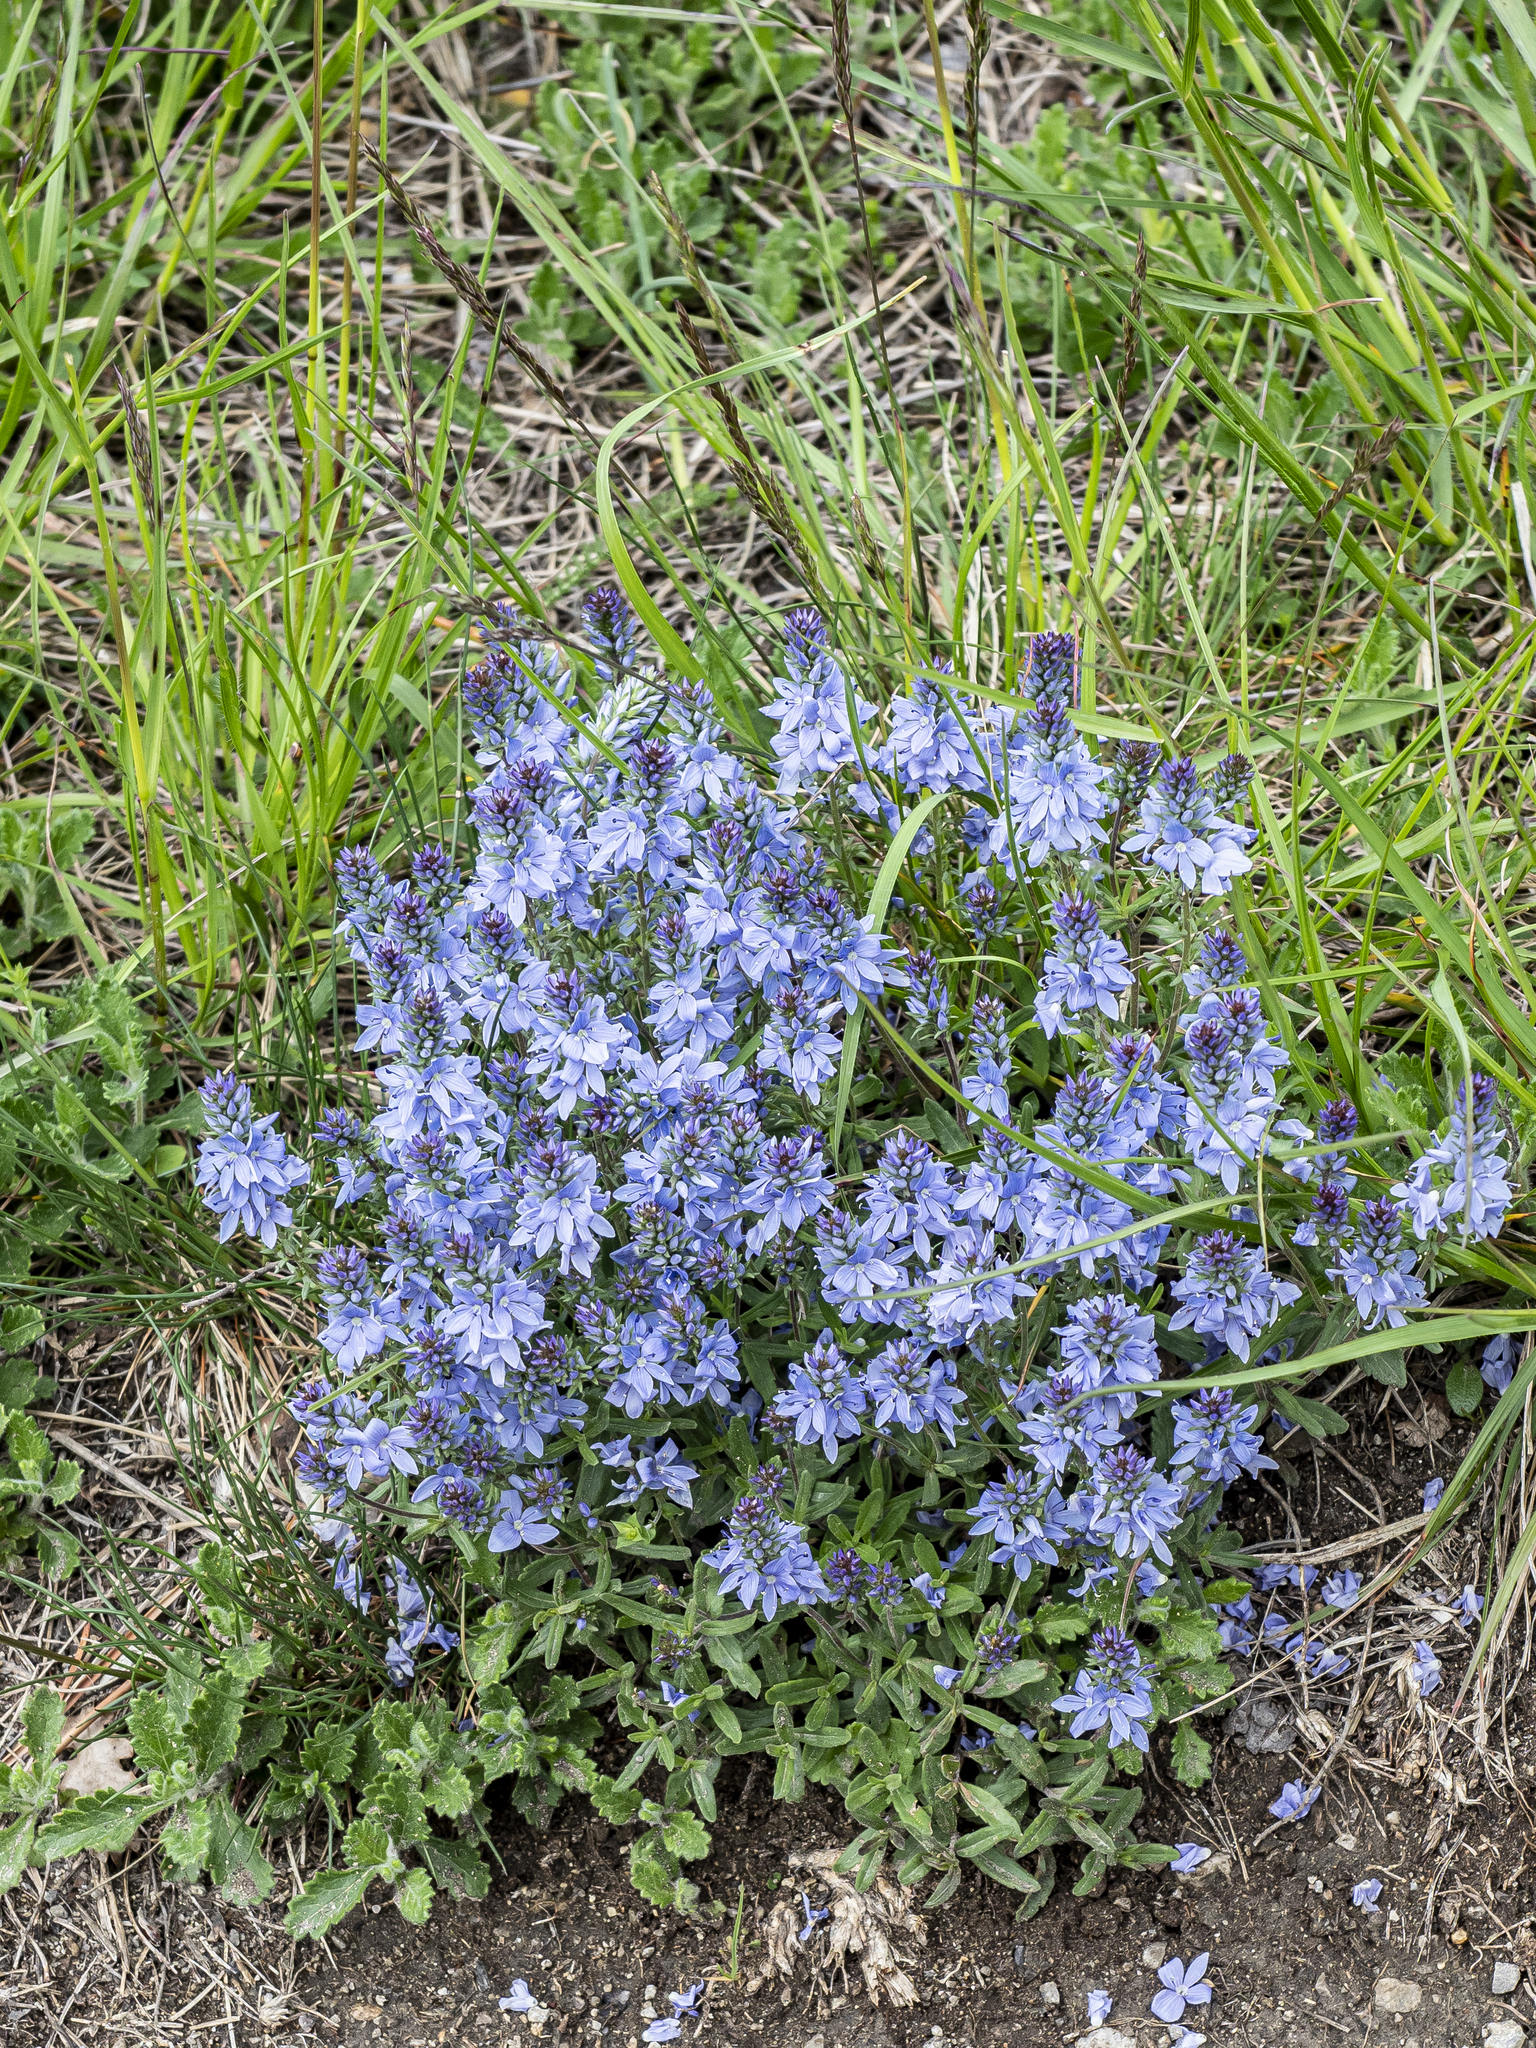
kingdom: Plantae
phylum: Tracheophyta
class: Magnoliopsida
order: Lamiales
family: Plantaginaceae
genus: Veronica
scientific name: Veronica prostrata
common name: Prostrate speedwell
